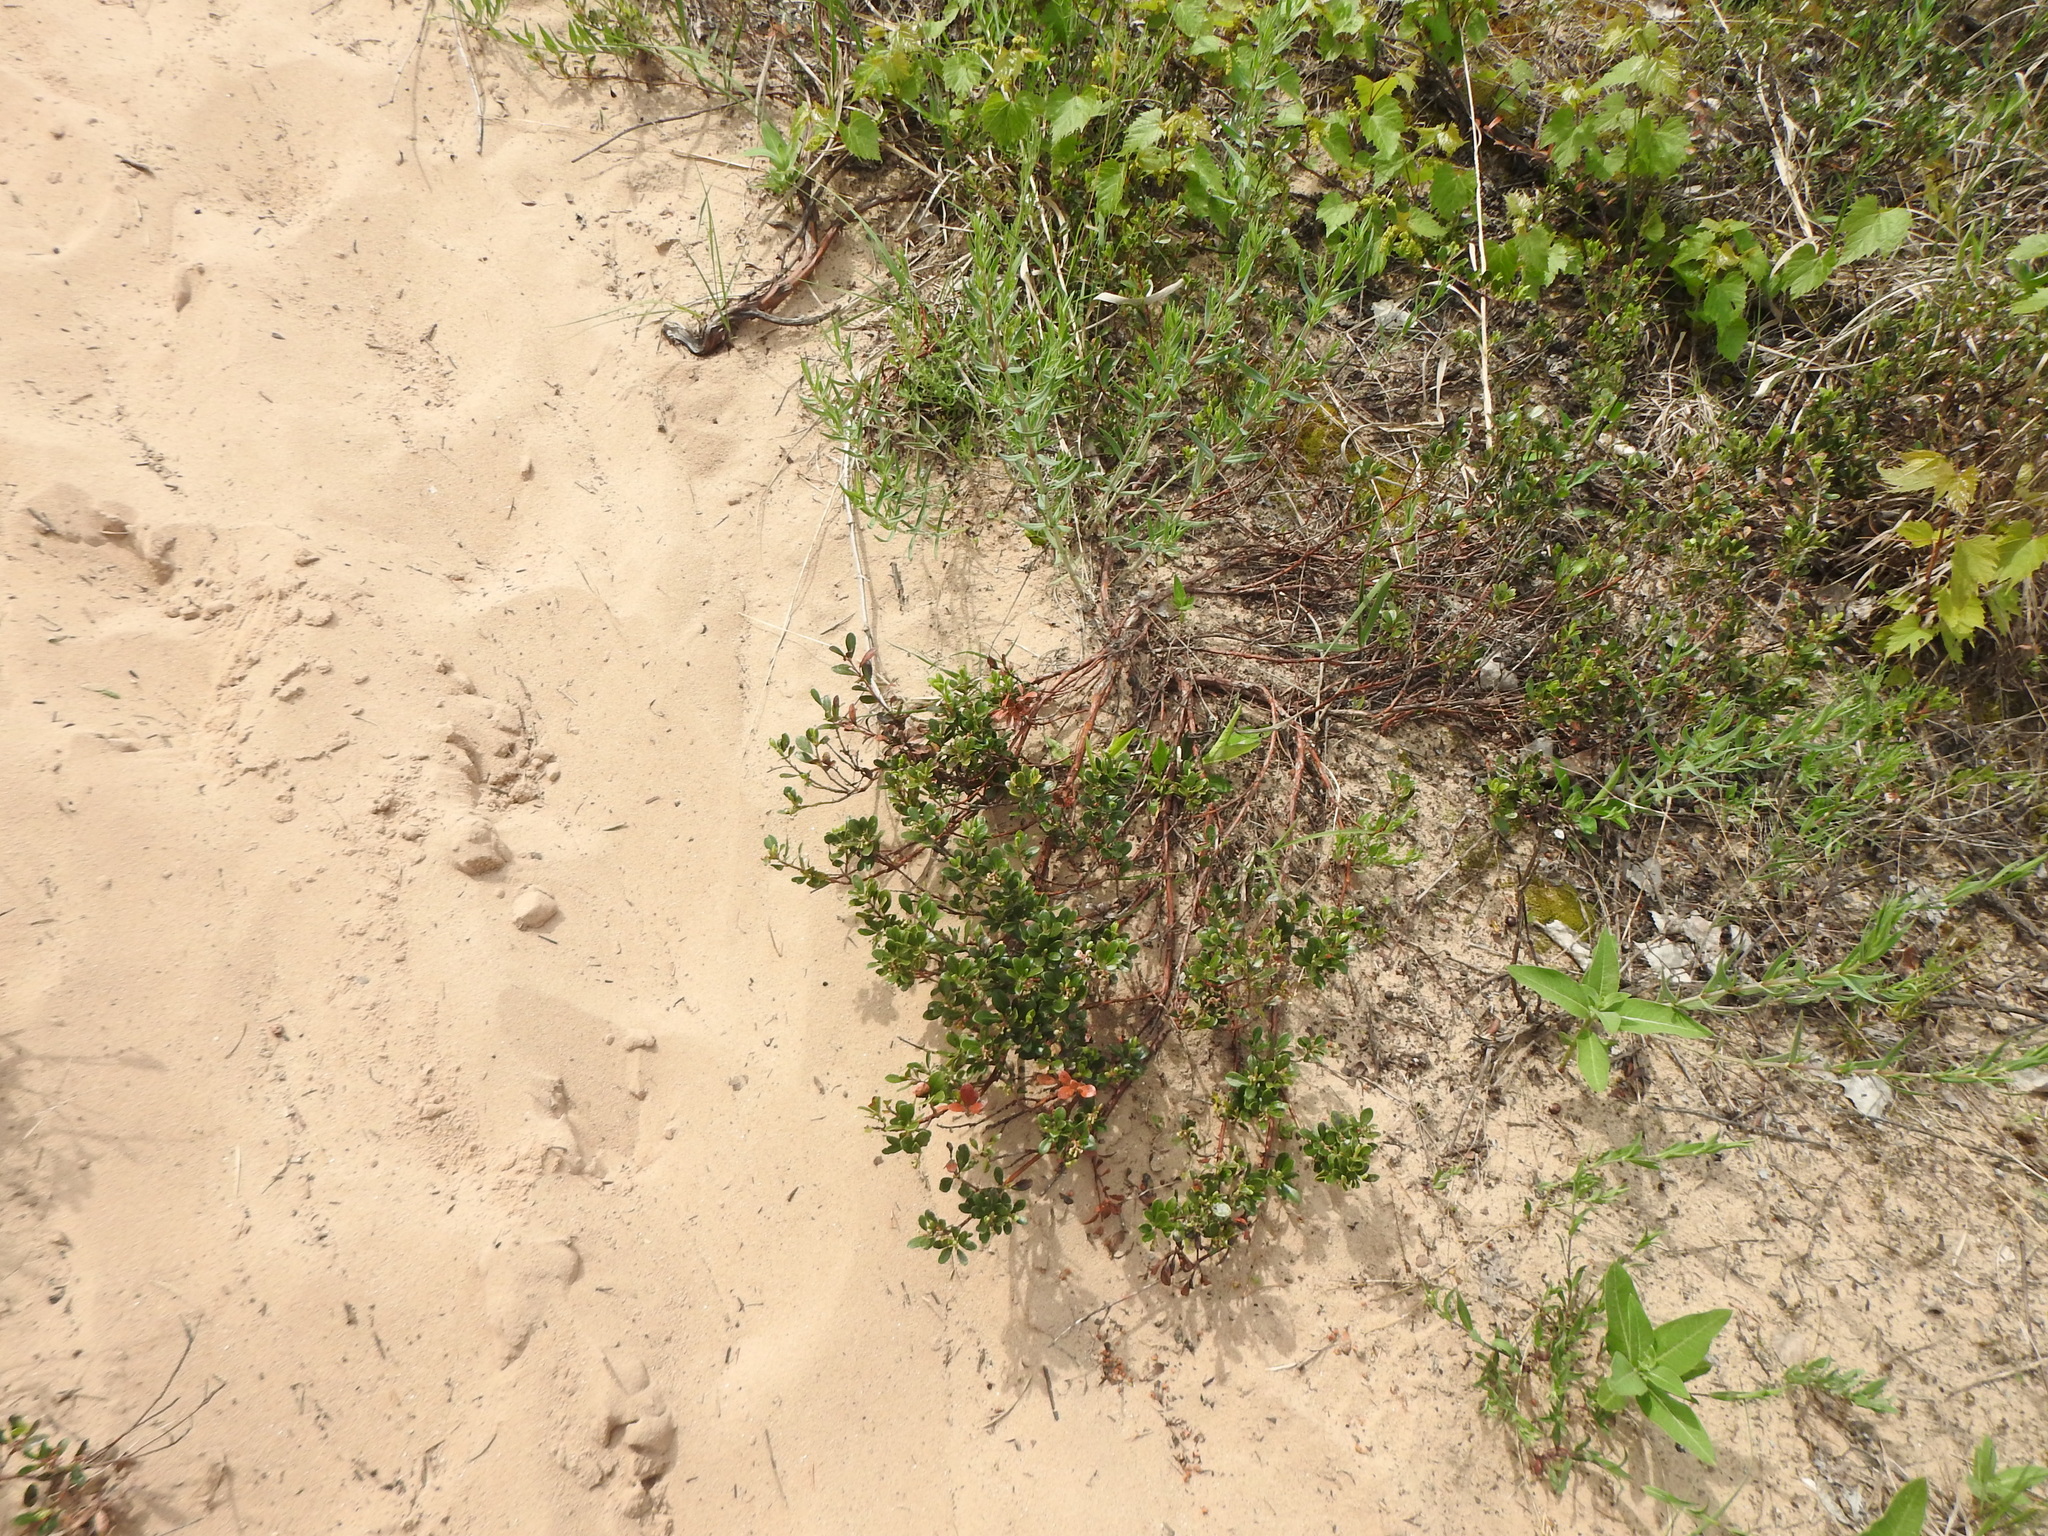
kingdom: Plantae
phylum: Tracheophyta
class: Magnoliopsida
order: Ericales
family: Ericaceae
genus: Arctostaphylos
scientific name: Arctostaphylos uva-ursi
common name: Bearberry
